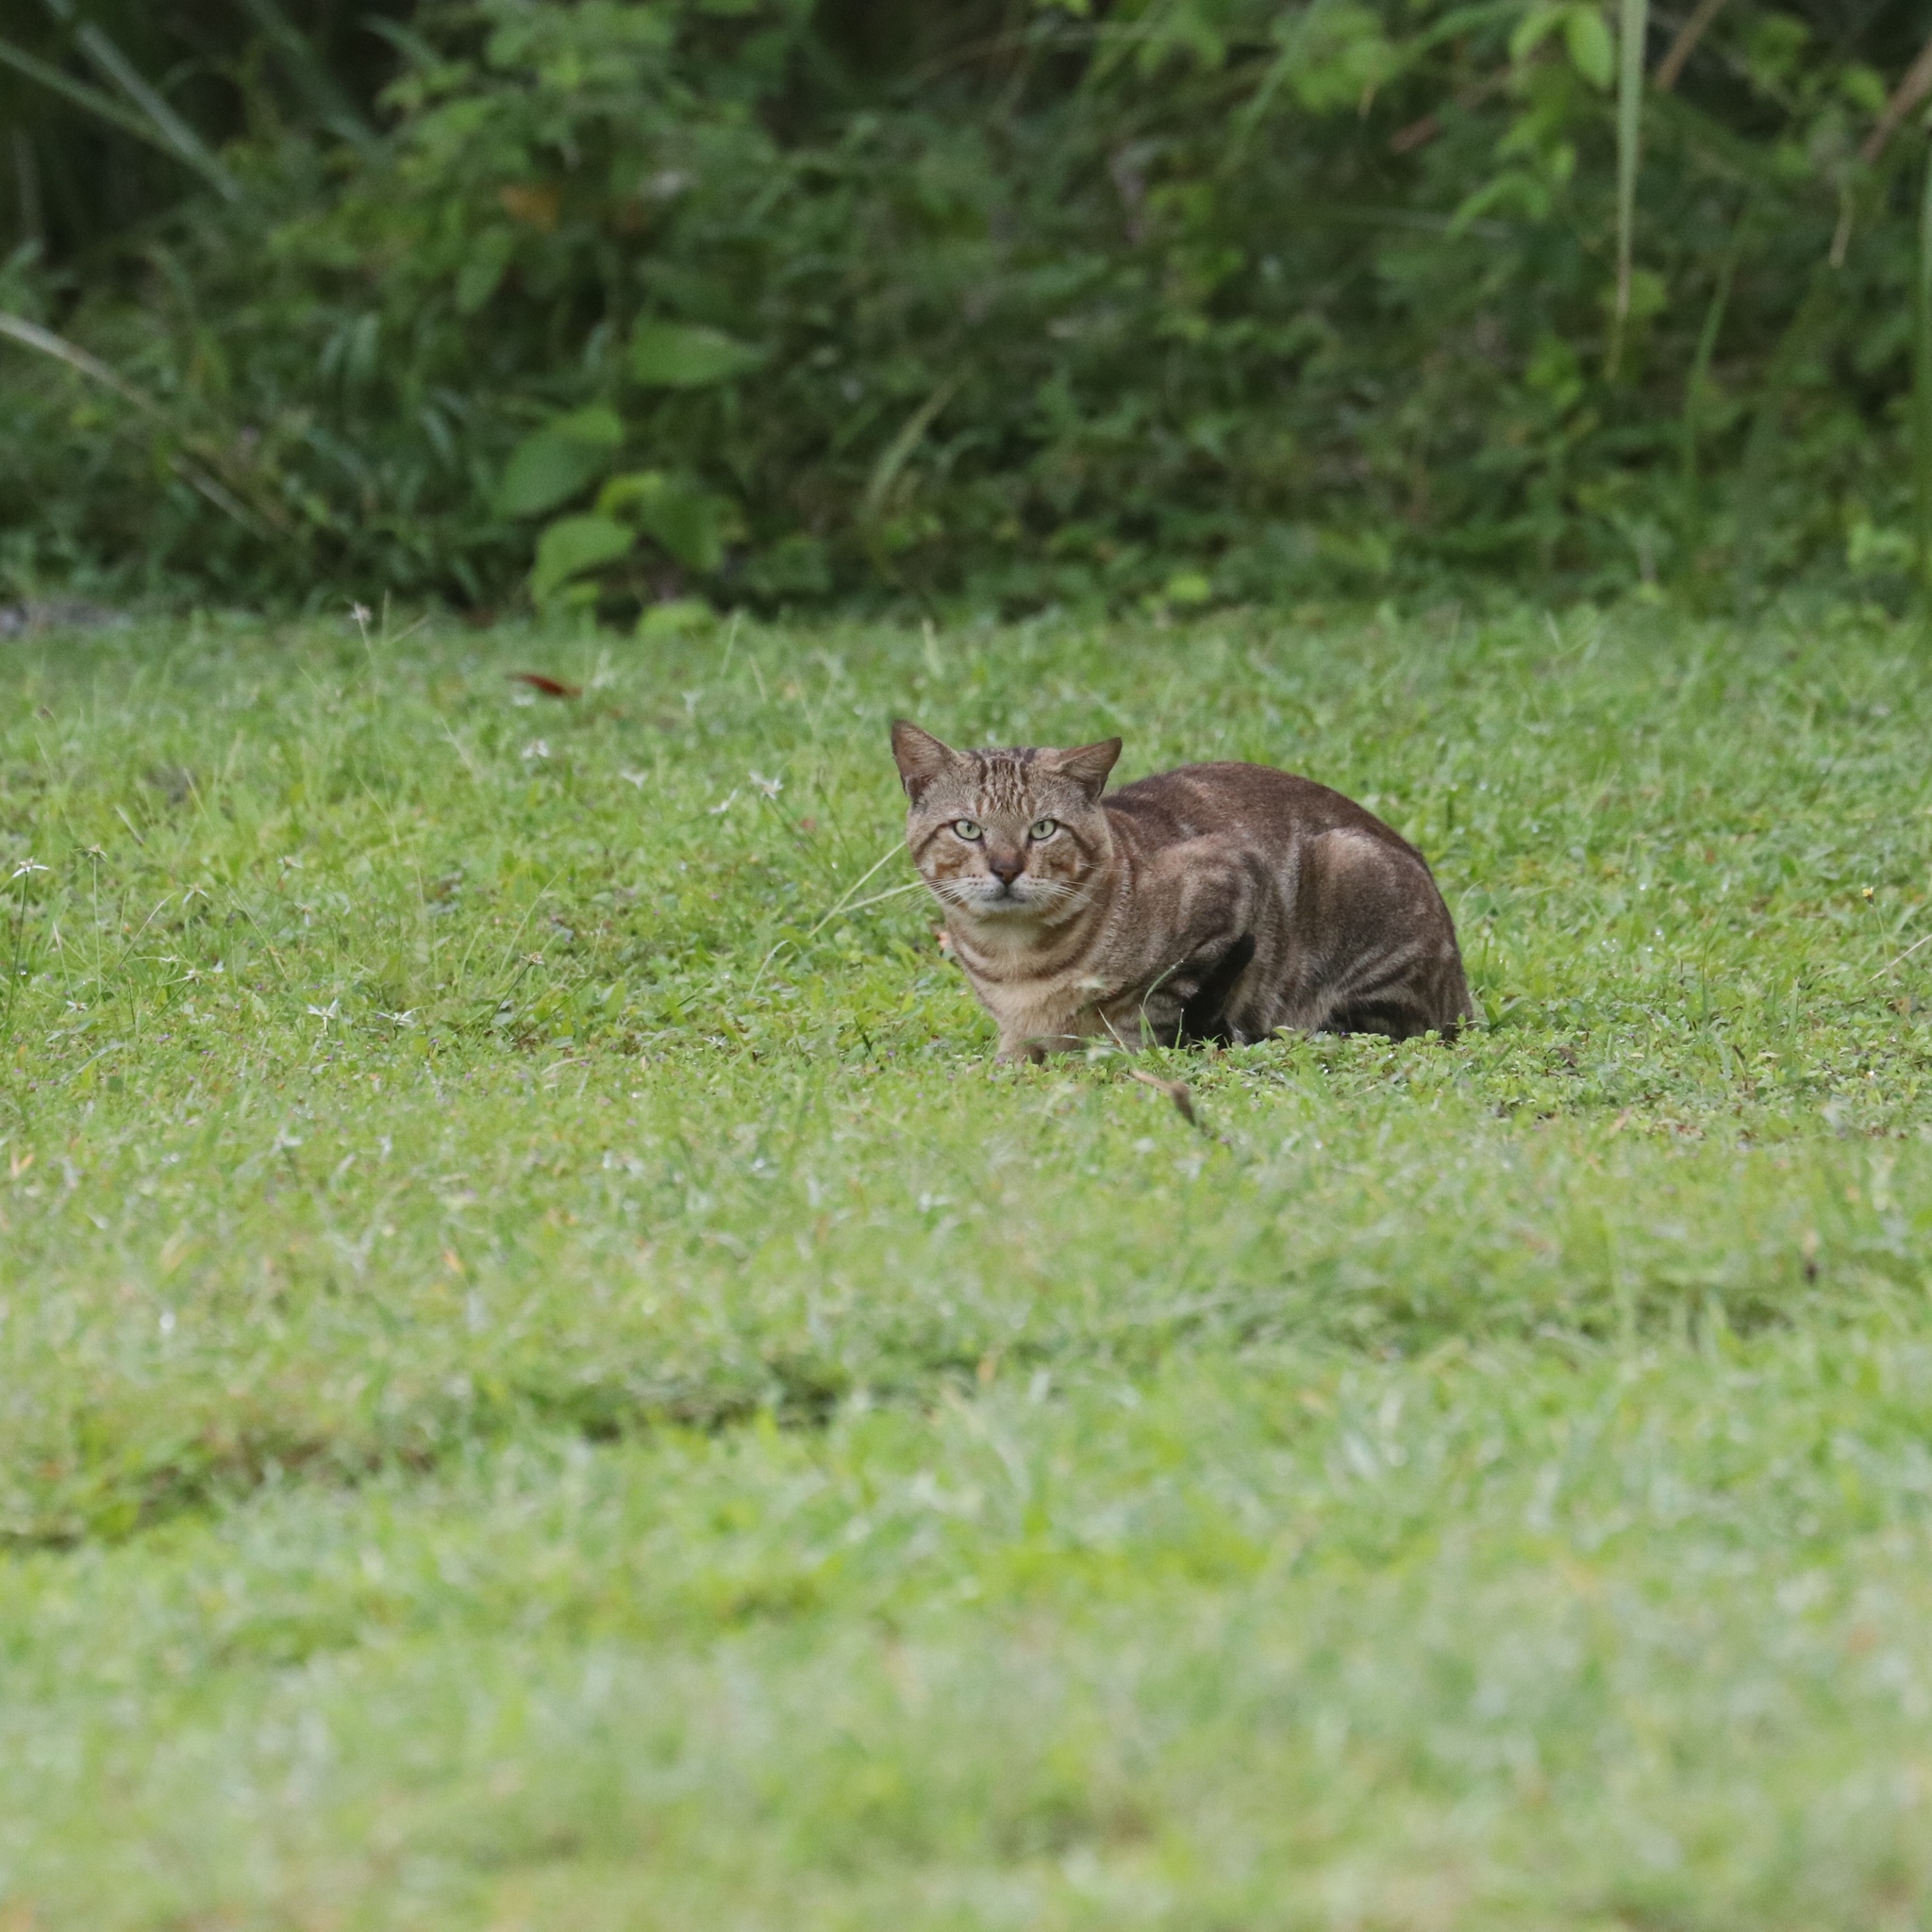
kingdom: Animalia
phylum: Chordata
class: Mammalia
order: Carnivora
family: Felidae
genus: Felis
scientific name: Felis catus
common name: Domestic cat
